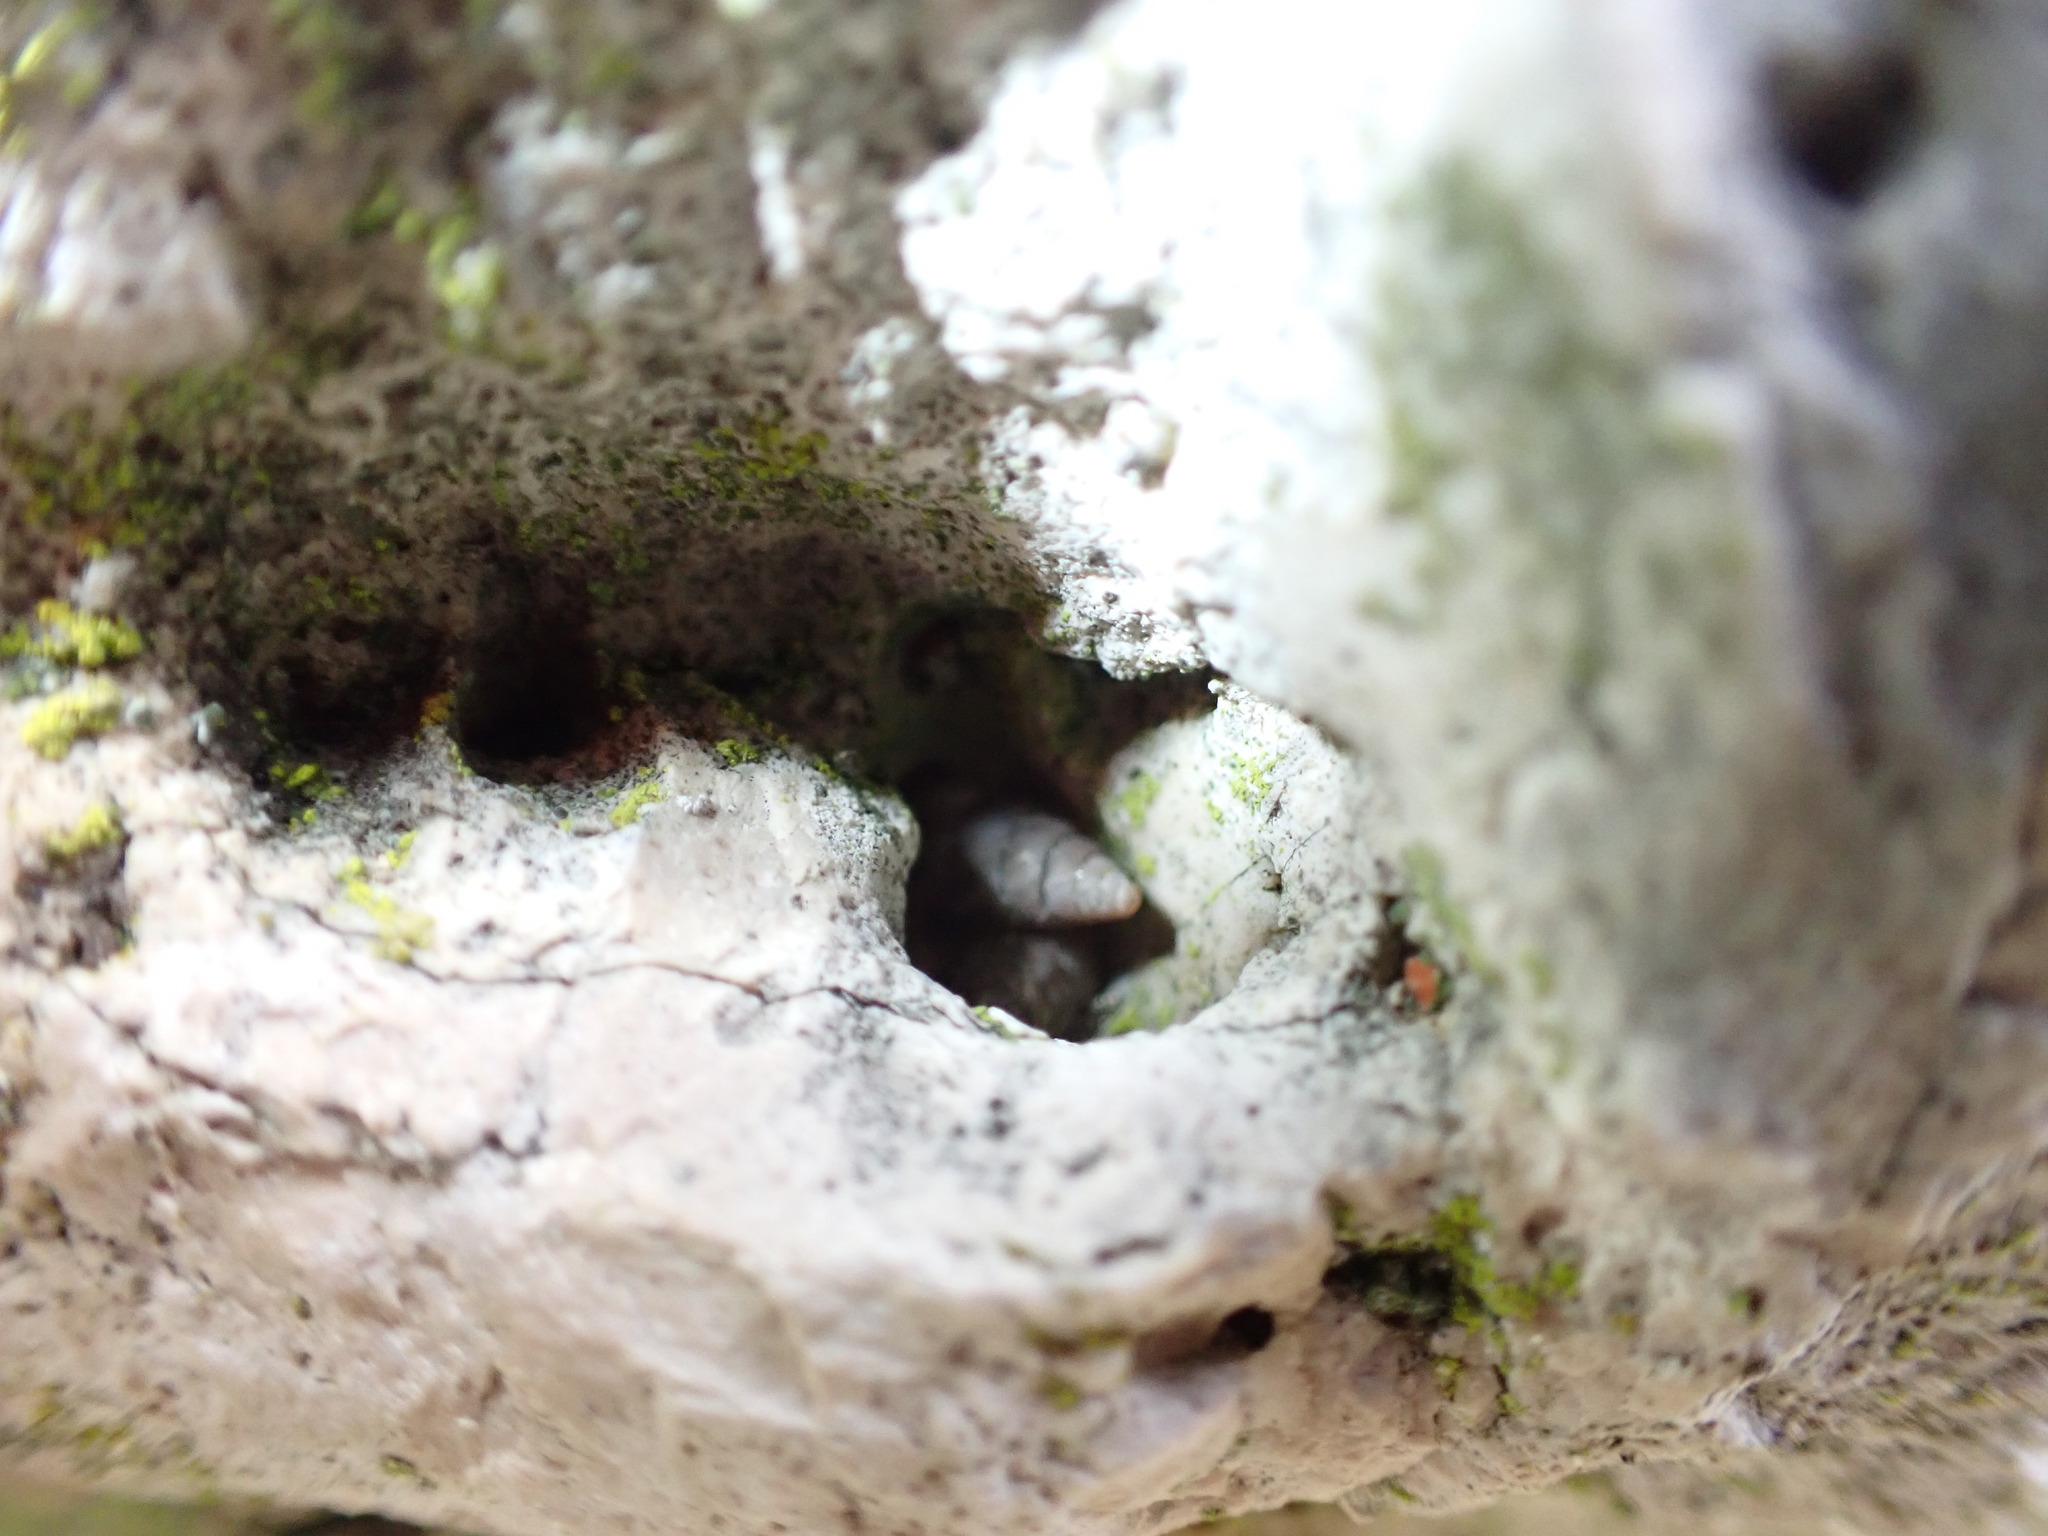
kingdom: Animalia
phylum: Mollusca
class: Gastropoda
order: Stylommatophora
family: Chondrinidae
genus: Solatopupa
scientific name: Solatopupa similis
